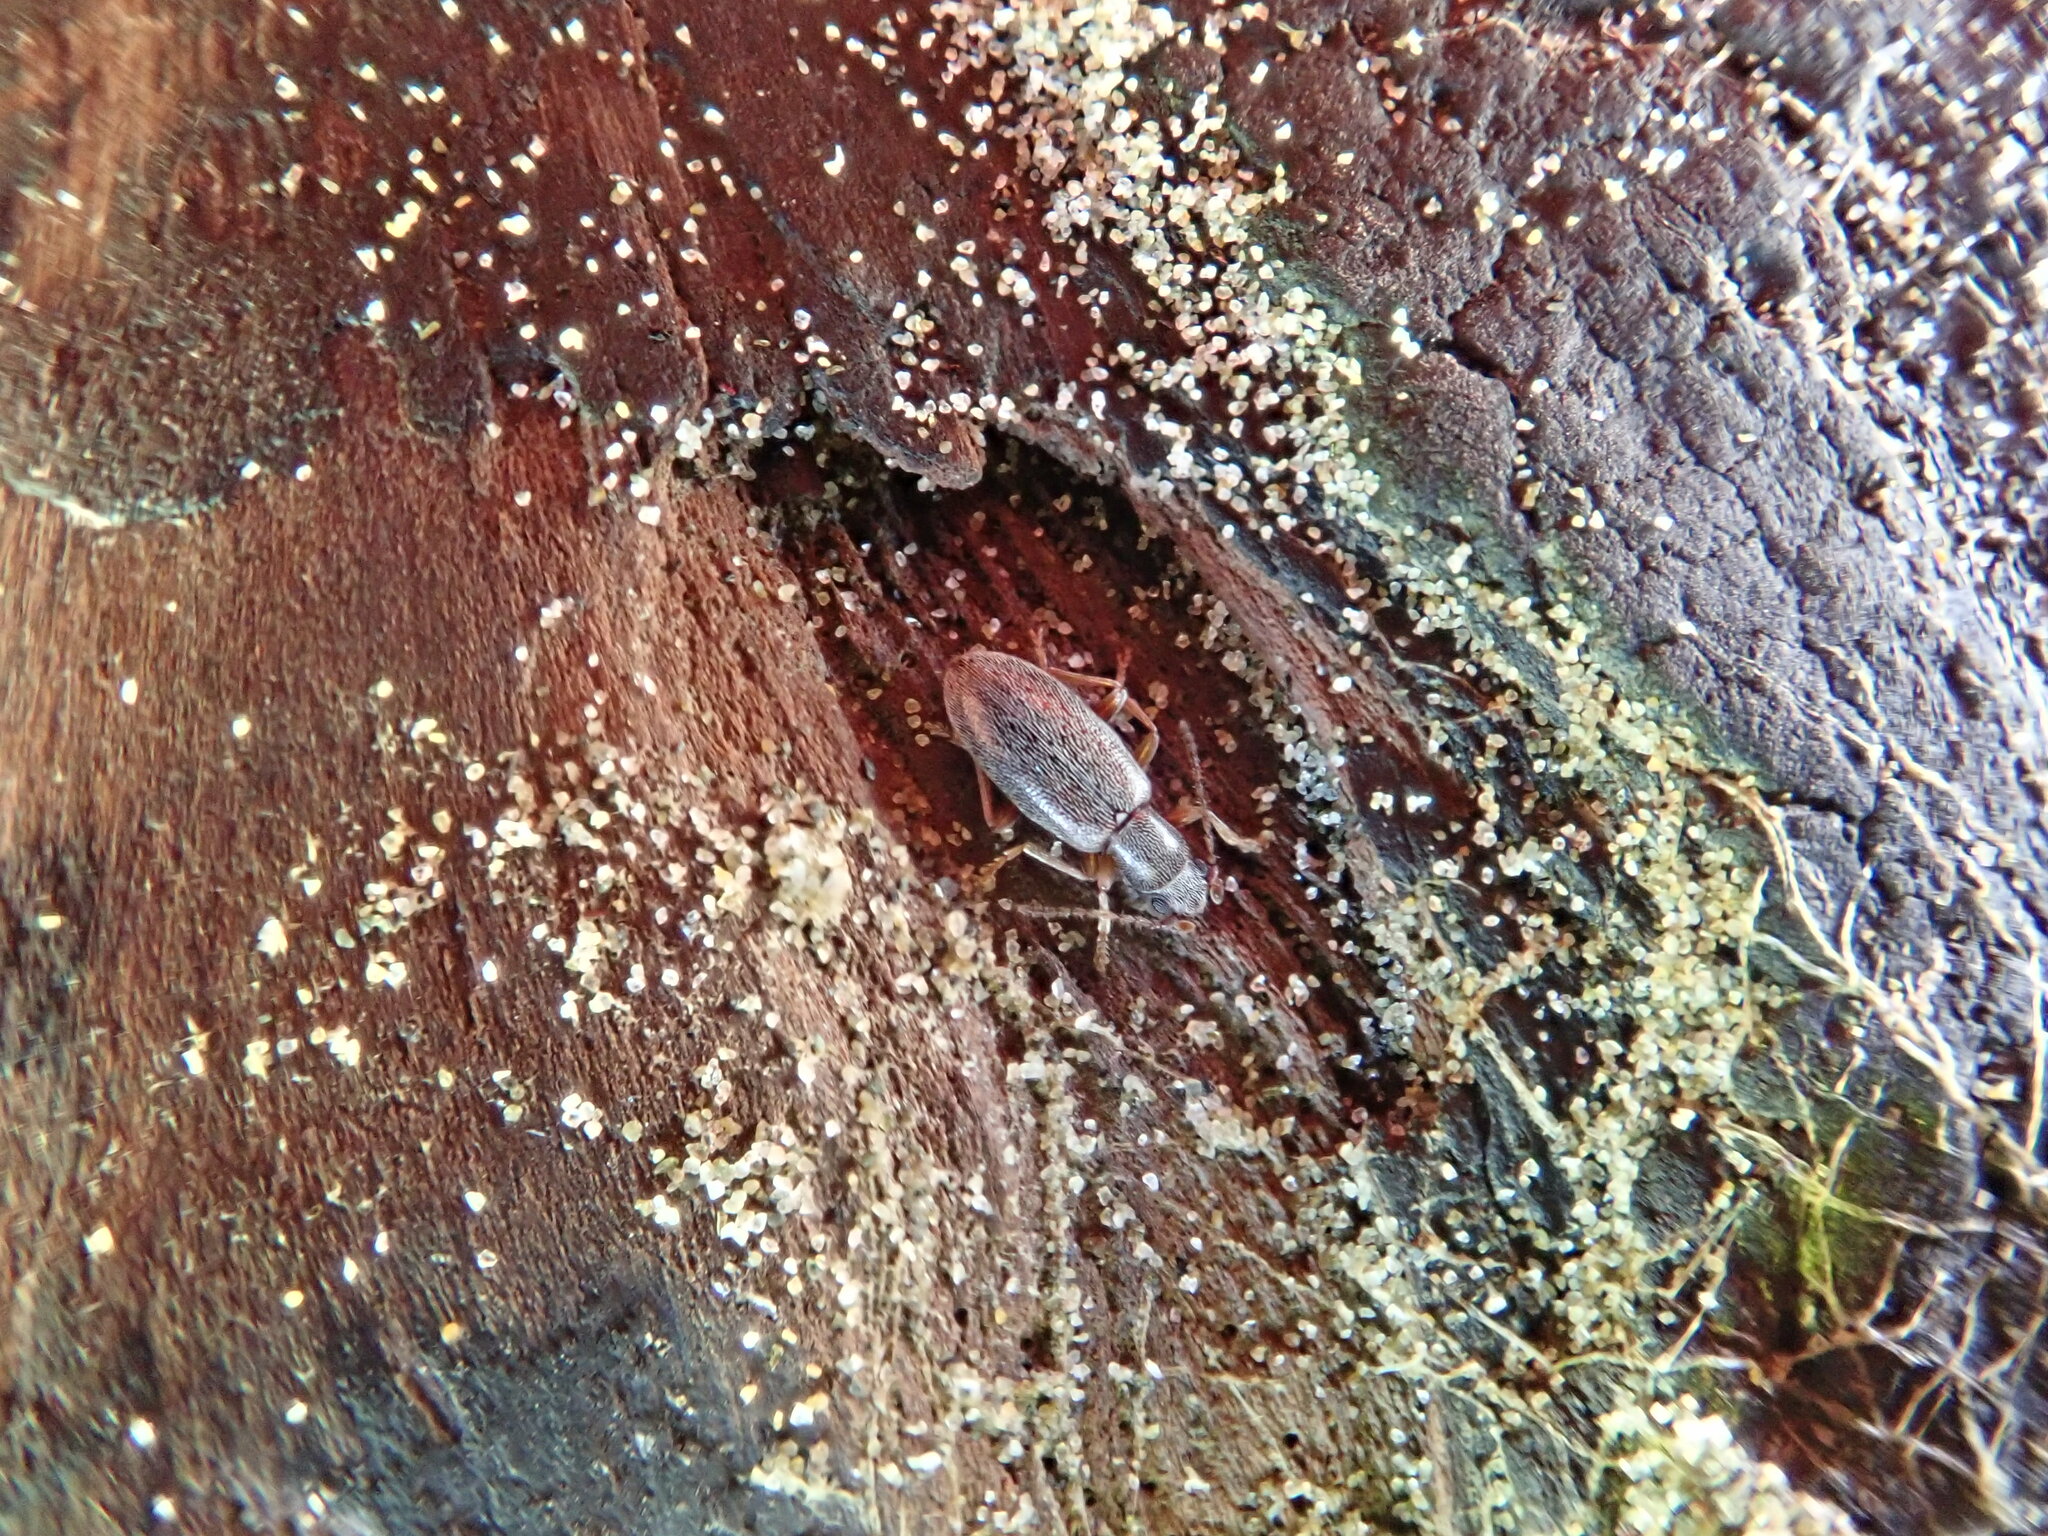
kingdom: Animalia
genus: Lagrioda
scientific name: Lagrioda brounii
